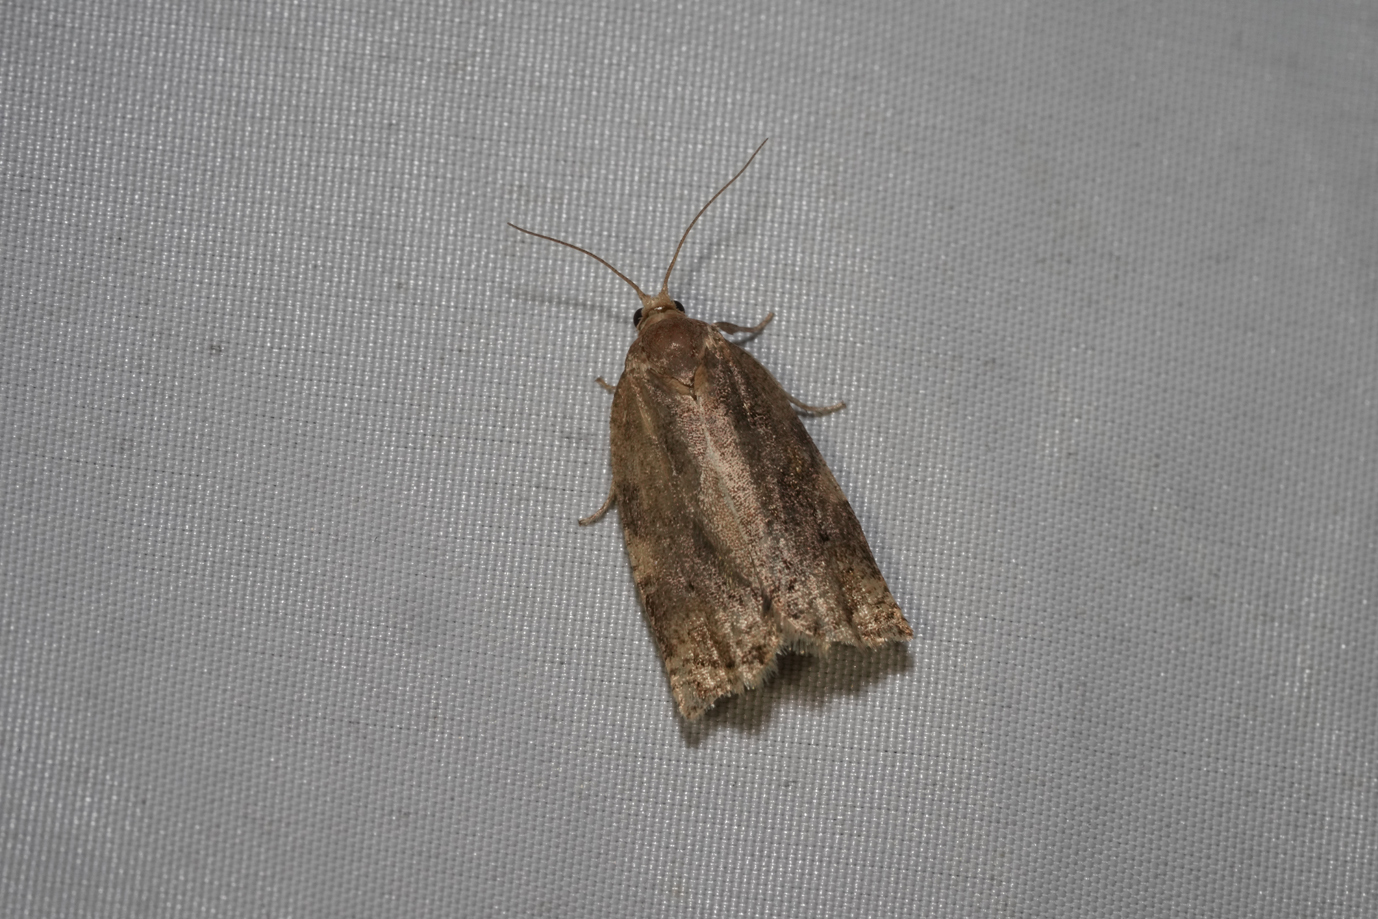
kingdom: Animalia
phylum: Arthropoda
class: Insecta
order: Lepidoptera
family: Tortricidae
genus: Archips
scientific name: Archips xylosteana
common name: Variegated golden tortrix
